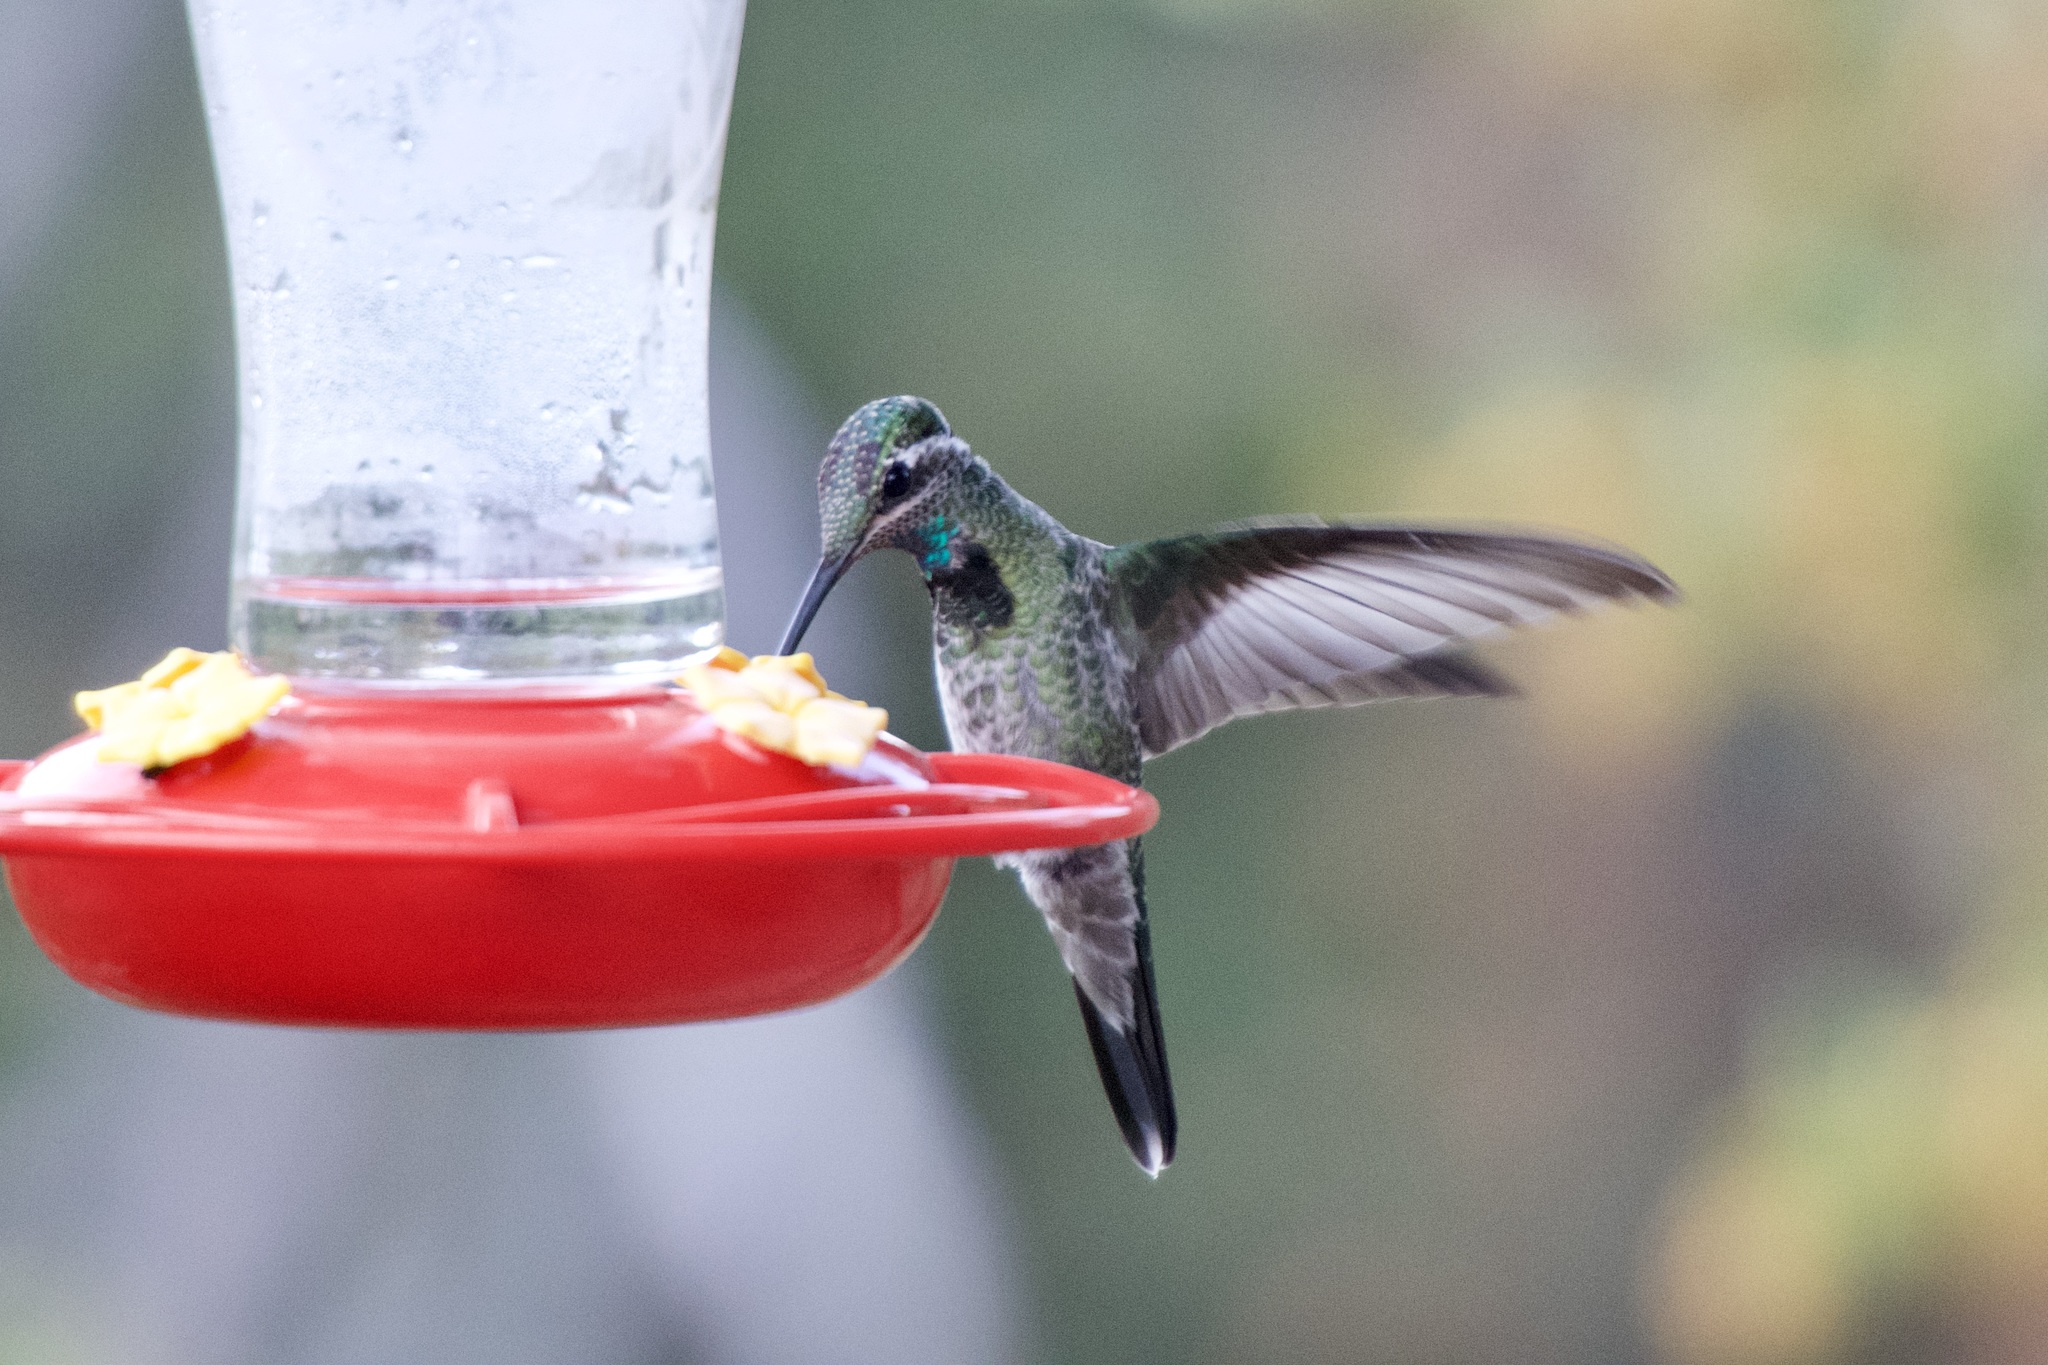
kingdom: Animalia
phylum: Chordata
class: Aves
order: Apodiformes
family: Trochilidae
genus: Eugenes
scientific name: Eugenes fulgens
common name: Magnificent hummingbird
